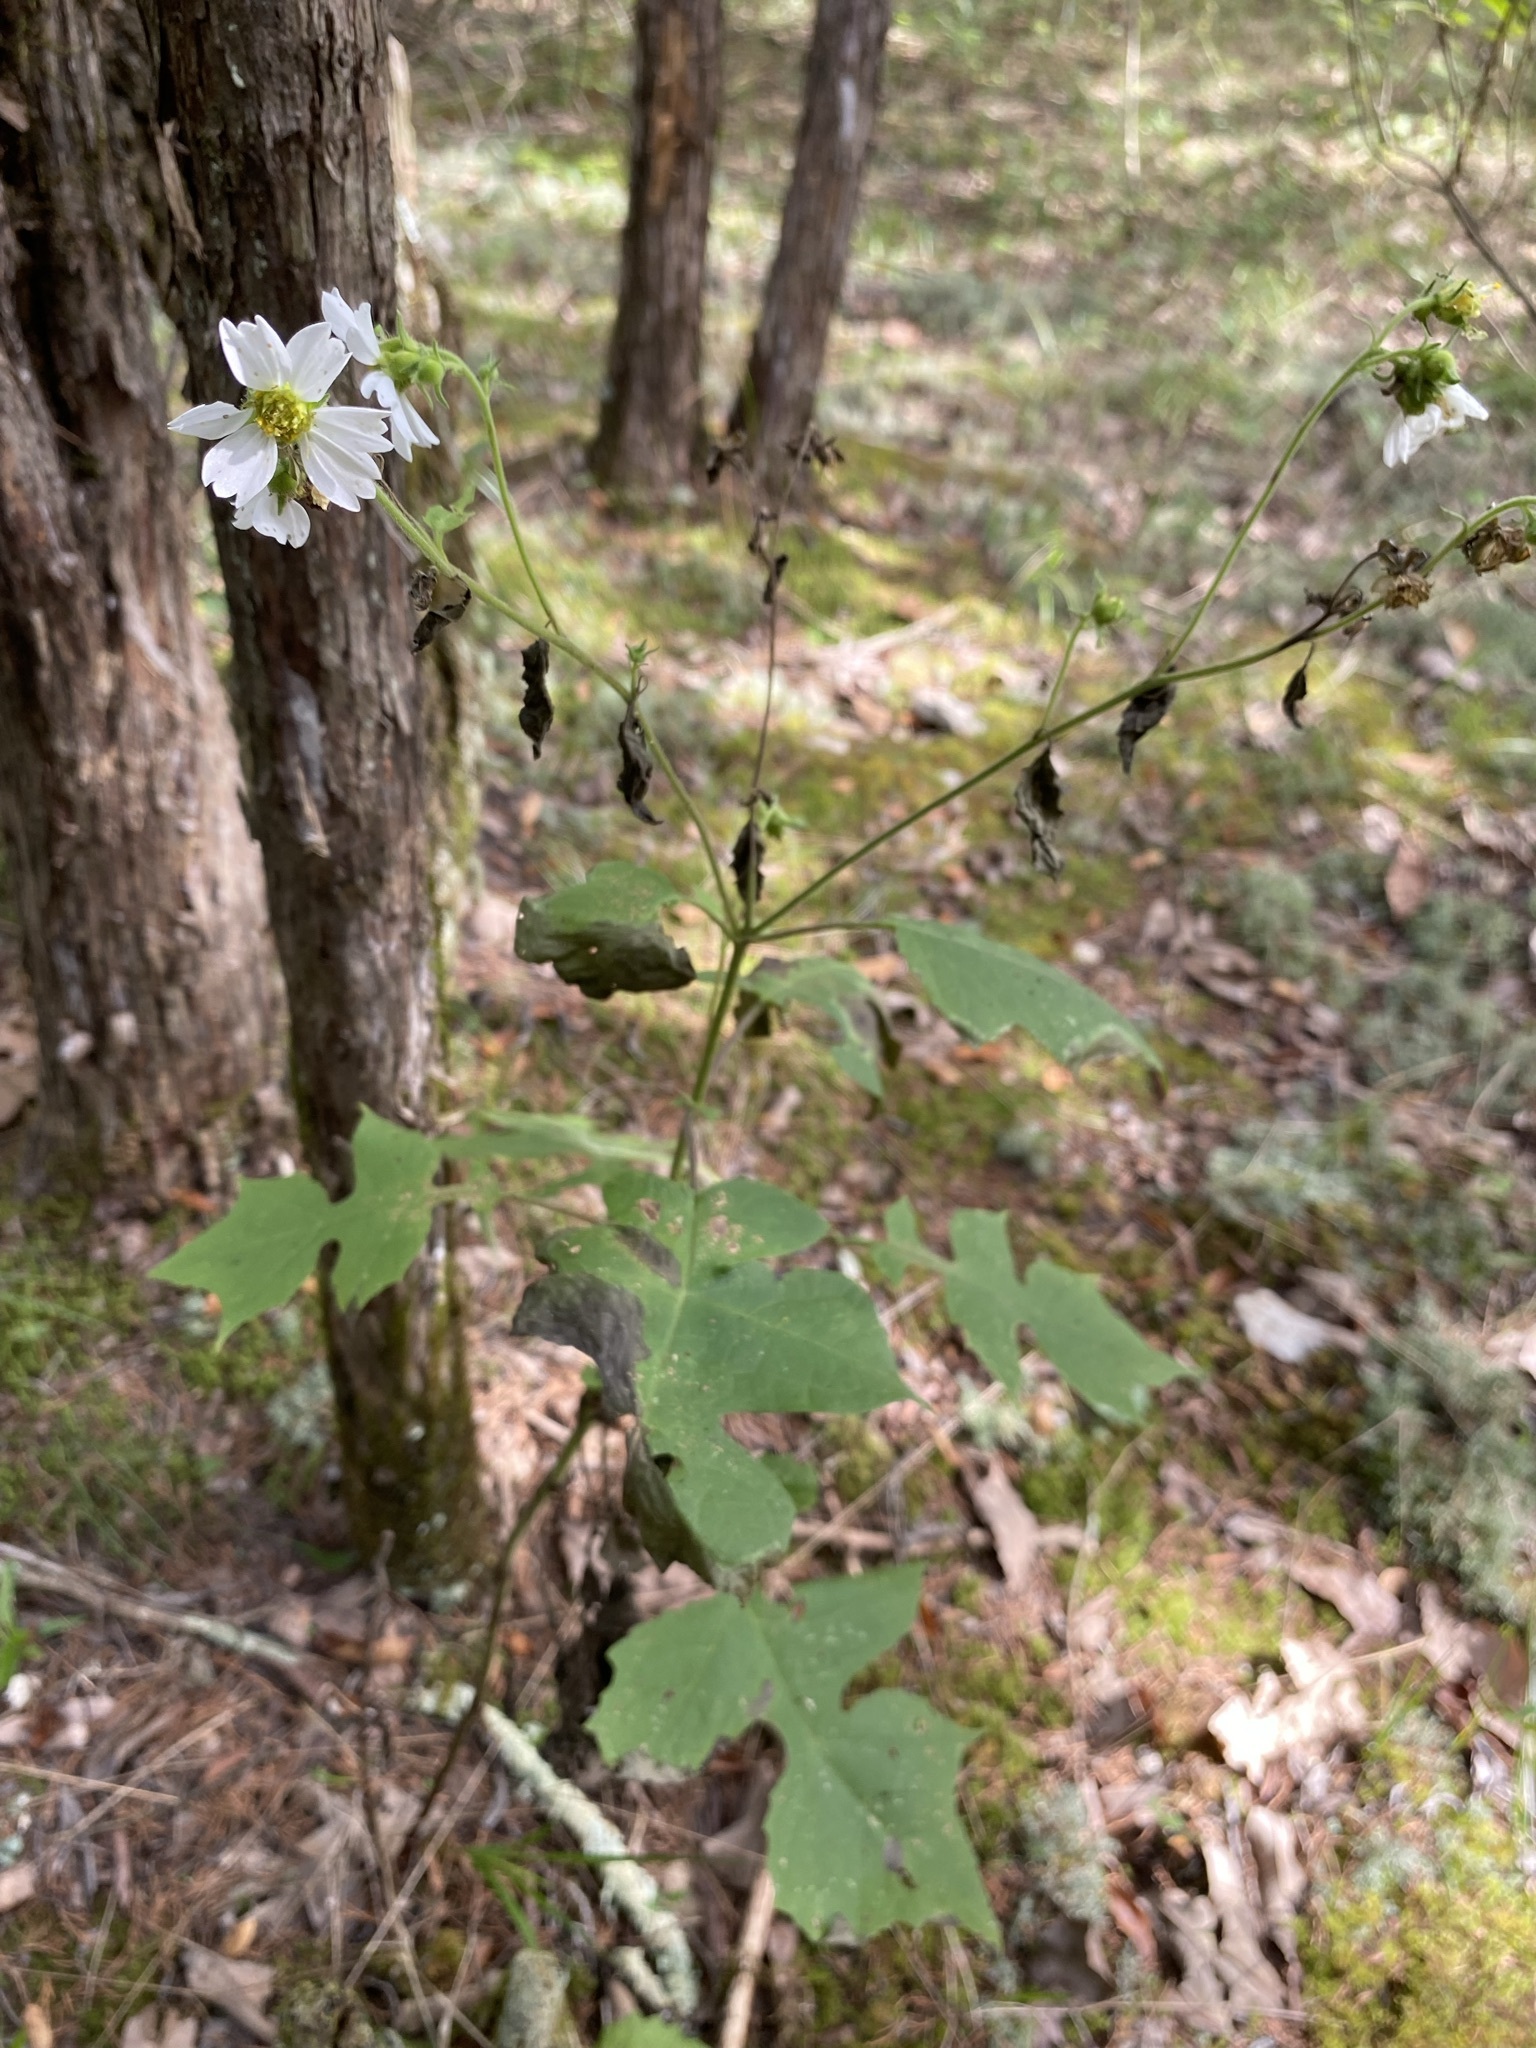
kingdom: Plantae
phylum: Tracheophyta
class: Magnoliopsida
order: Asterales
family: Asteraceae
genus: Polymnia
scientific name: Polymnia canadensis
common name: Pale-flowered leafcup
